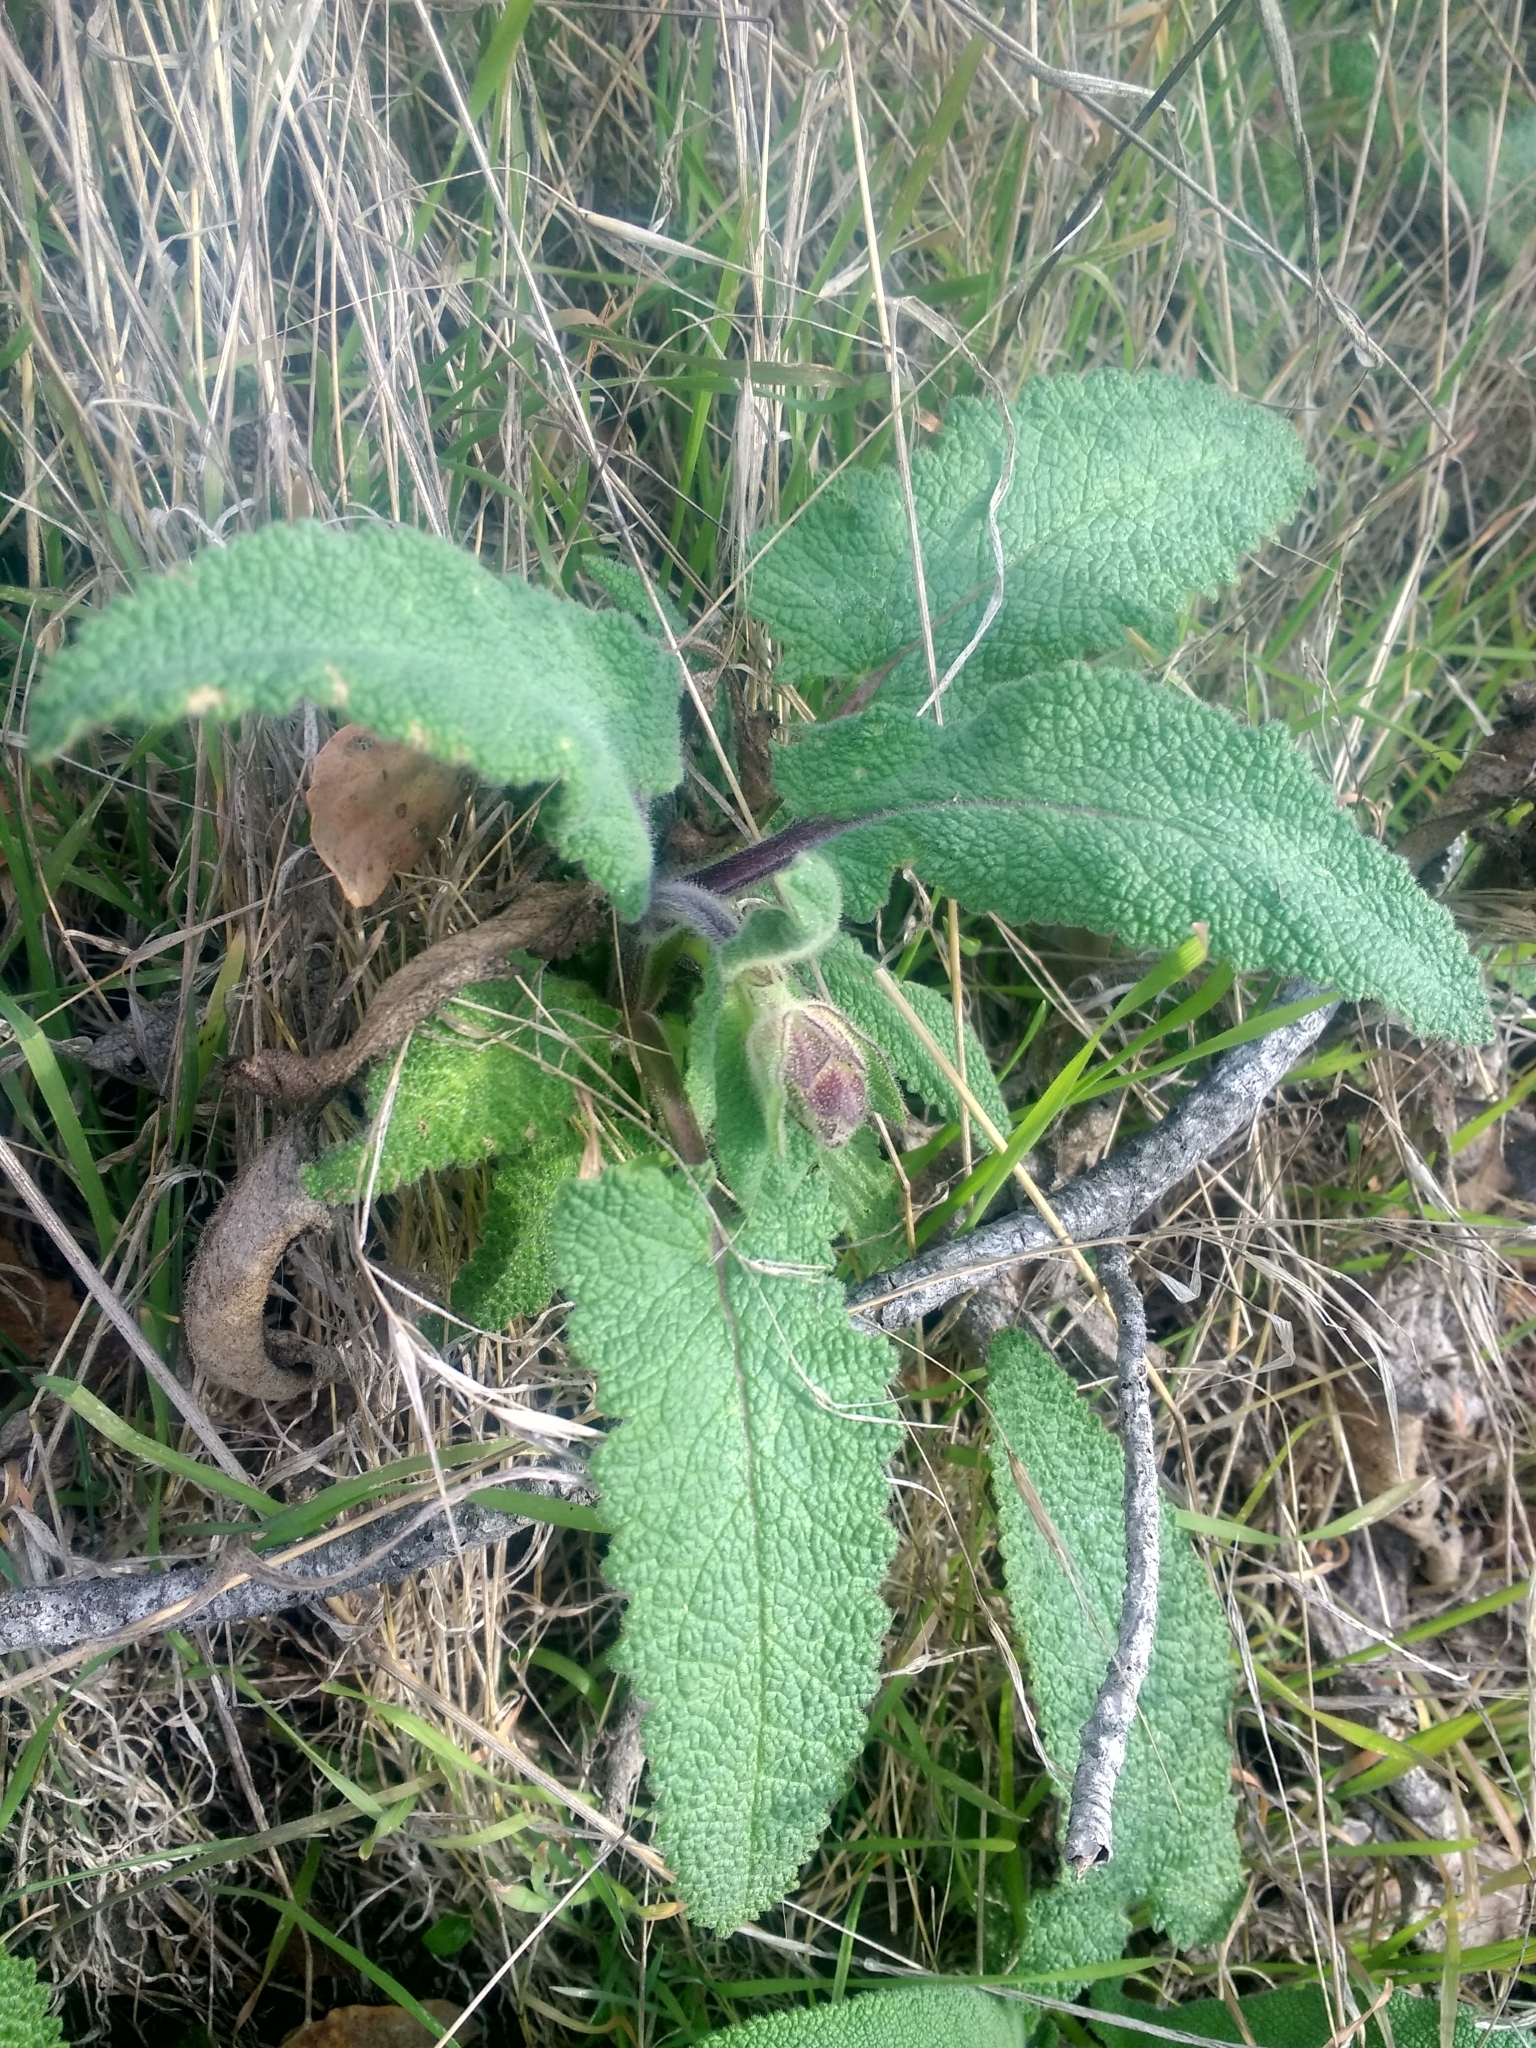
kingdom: Plantae
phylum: Tracheophyta
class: Magnoliopsida
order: Lamiales
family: Lamiaceae
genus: Salvia
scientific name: Salvia spathacea
